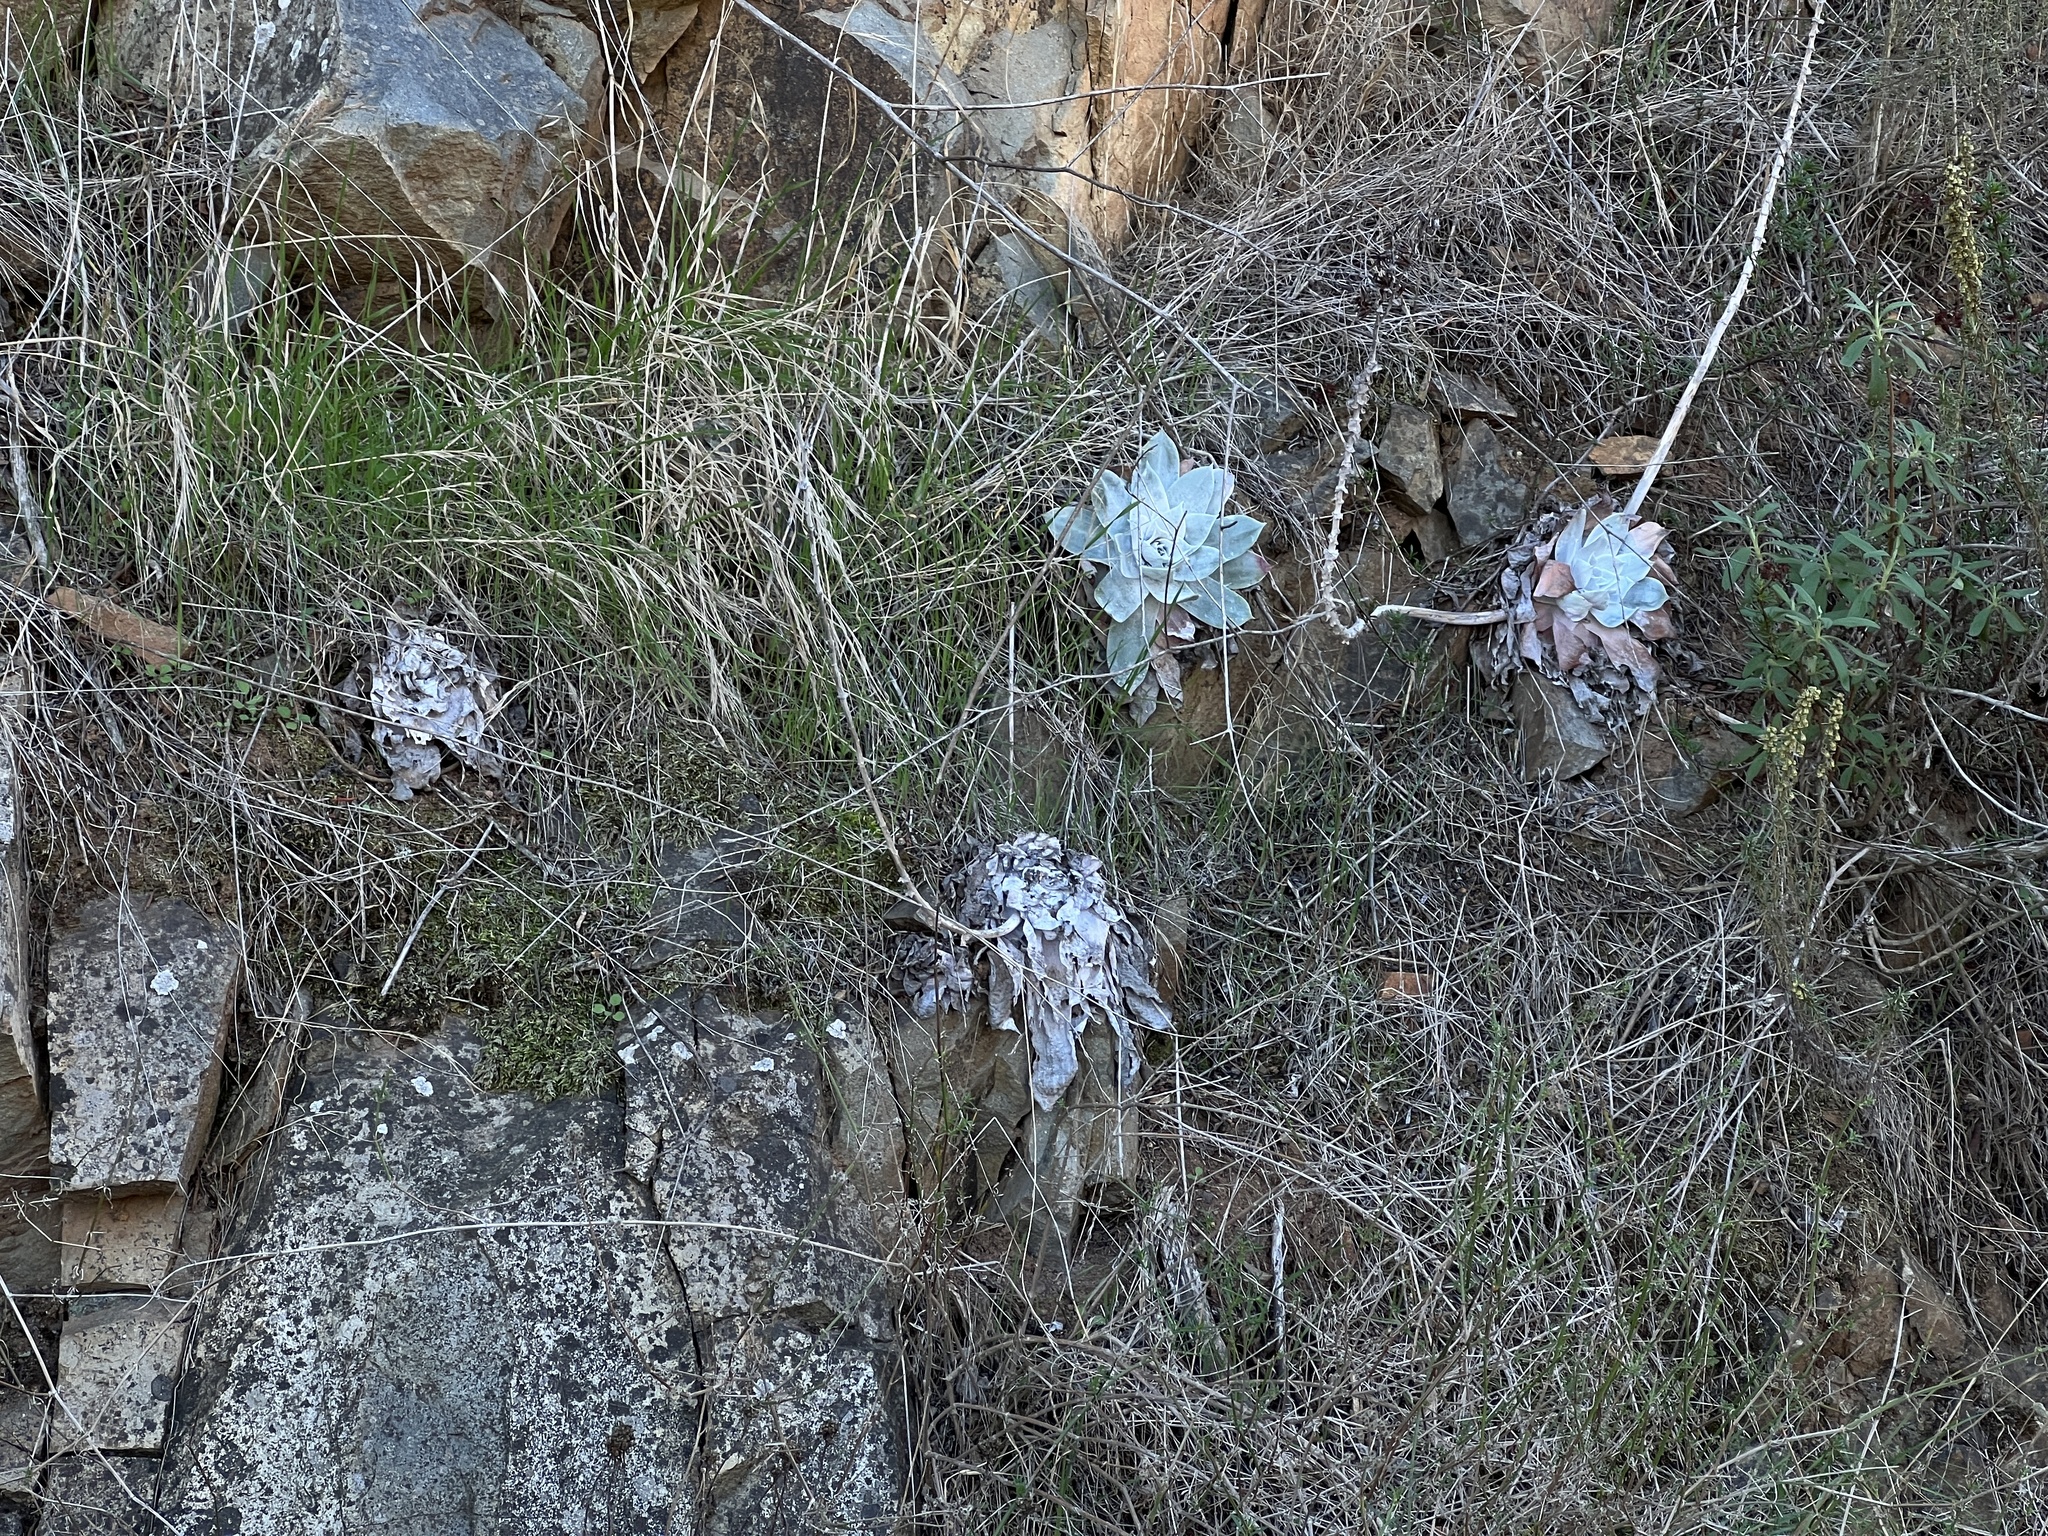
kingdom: Plantae
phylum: Tracheophyta
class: Magnoliopsida
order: Saxifragales
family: Crassulaceae
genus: Dudleya
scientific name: Dudleya pulverulenta
